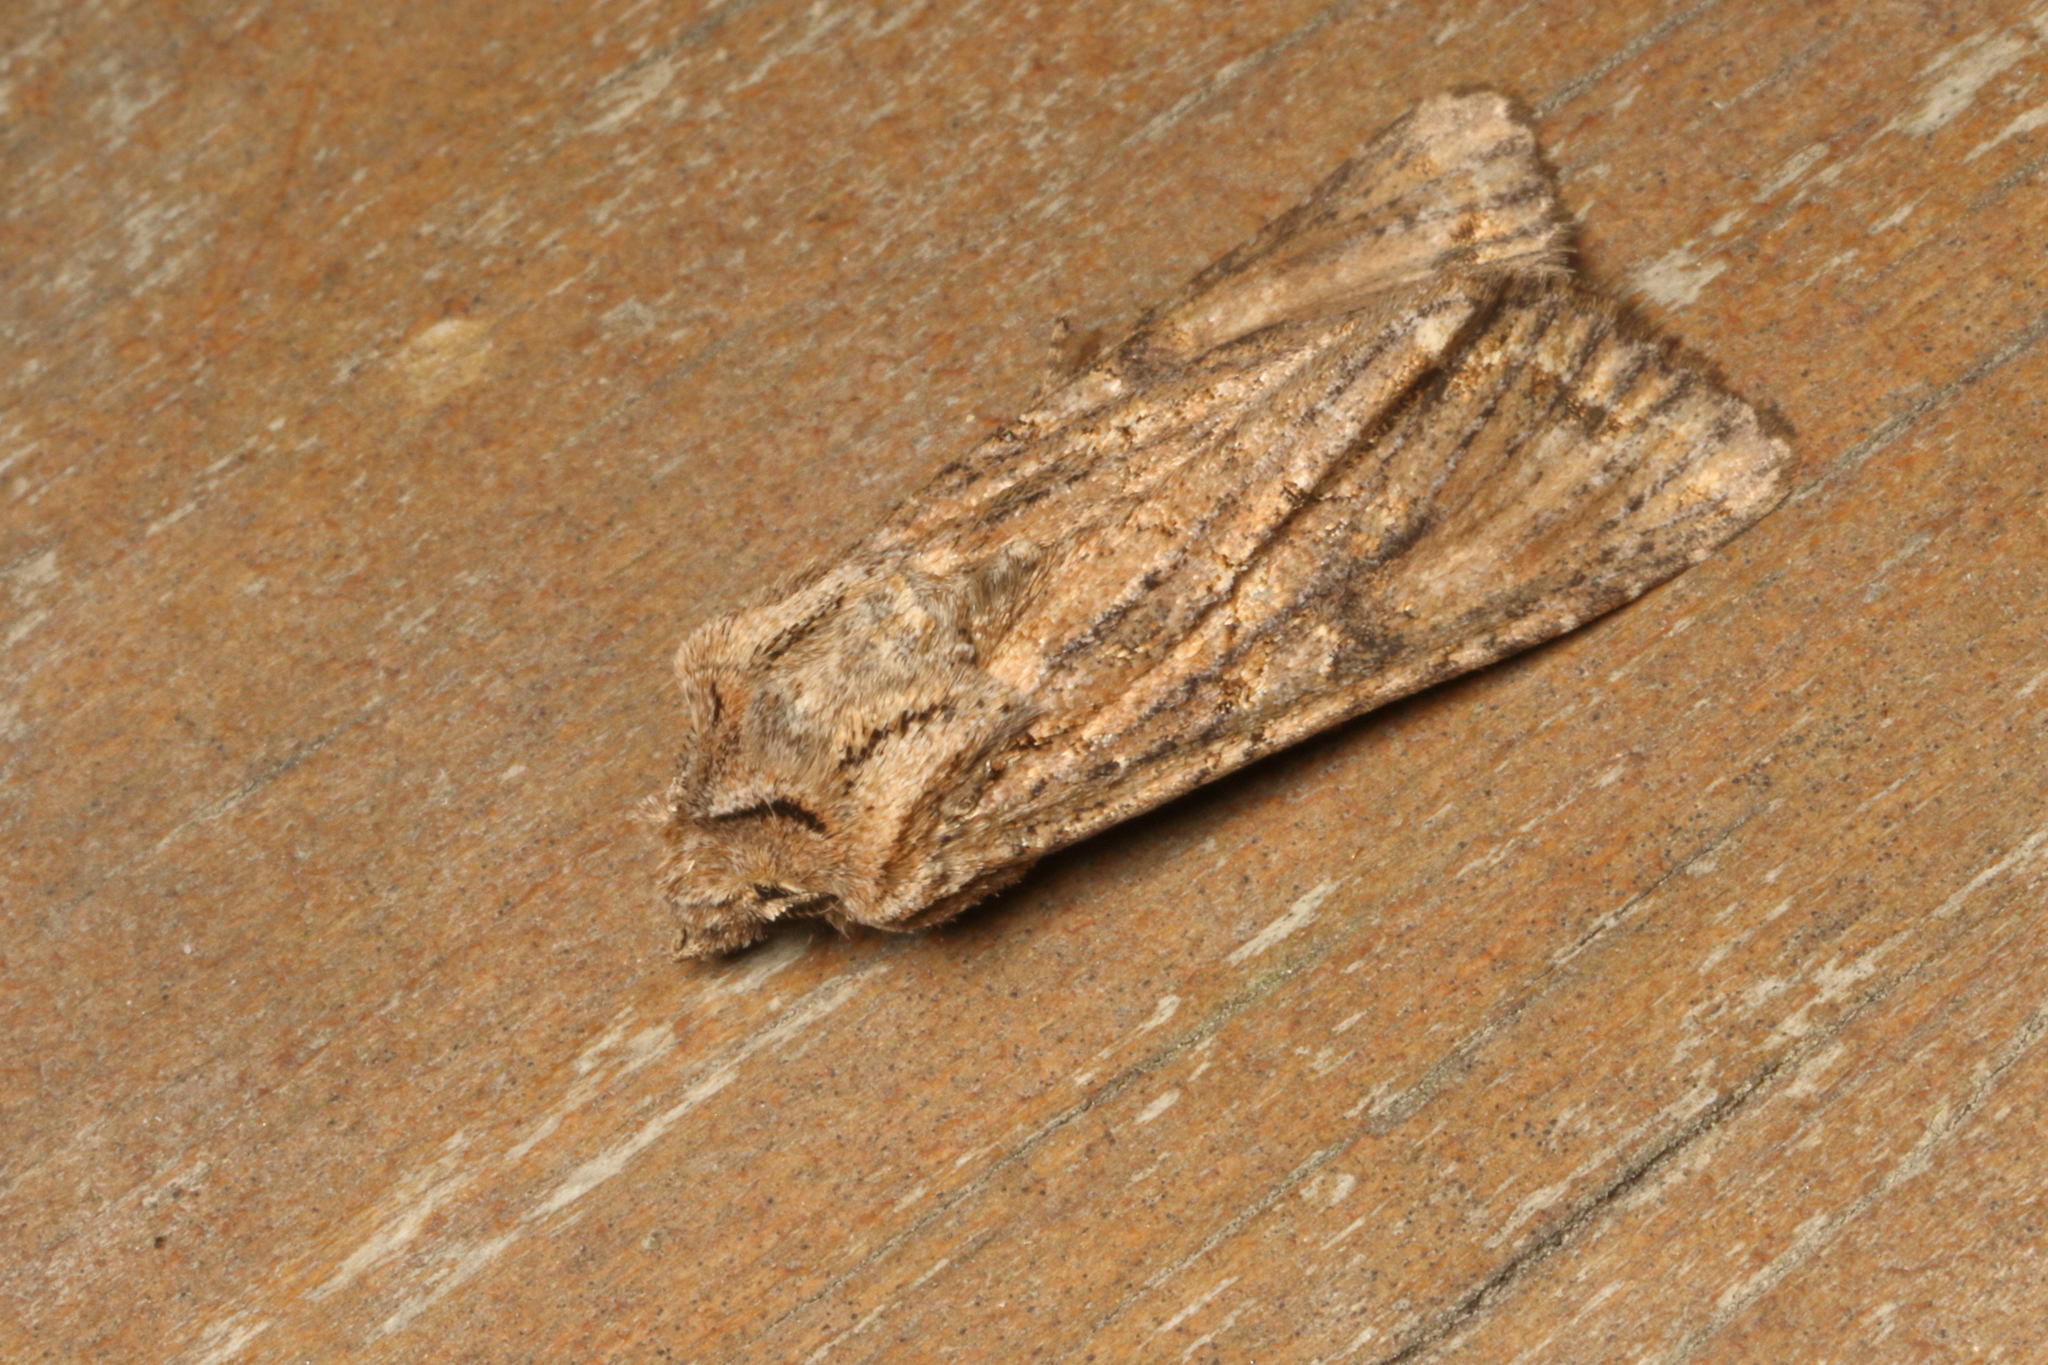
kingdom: Animalia
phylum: Arthropoda
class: Insecta
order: Lepidoptera
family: Noctuidae
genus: Ichneutica
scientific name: Ichneutica mutans
